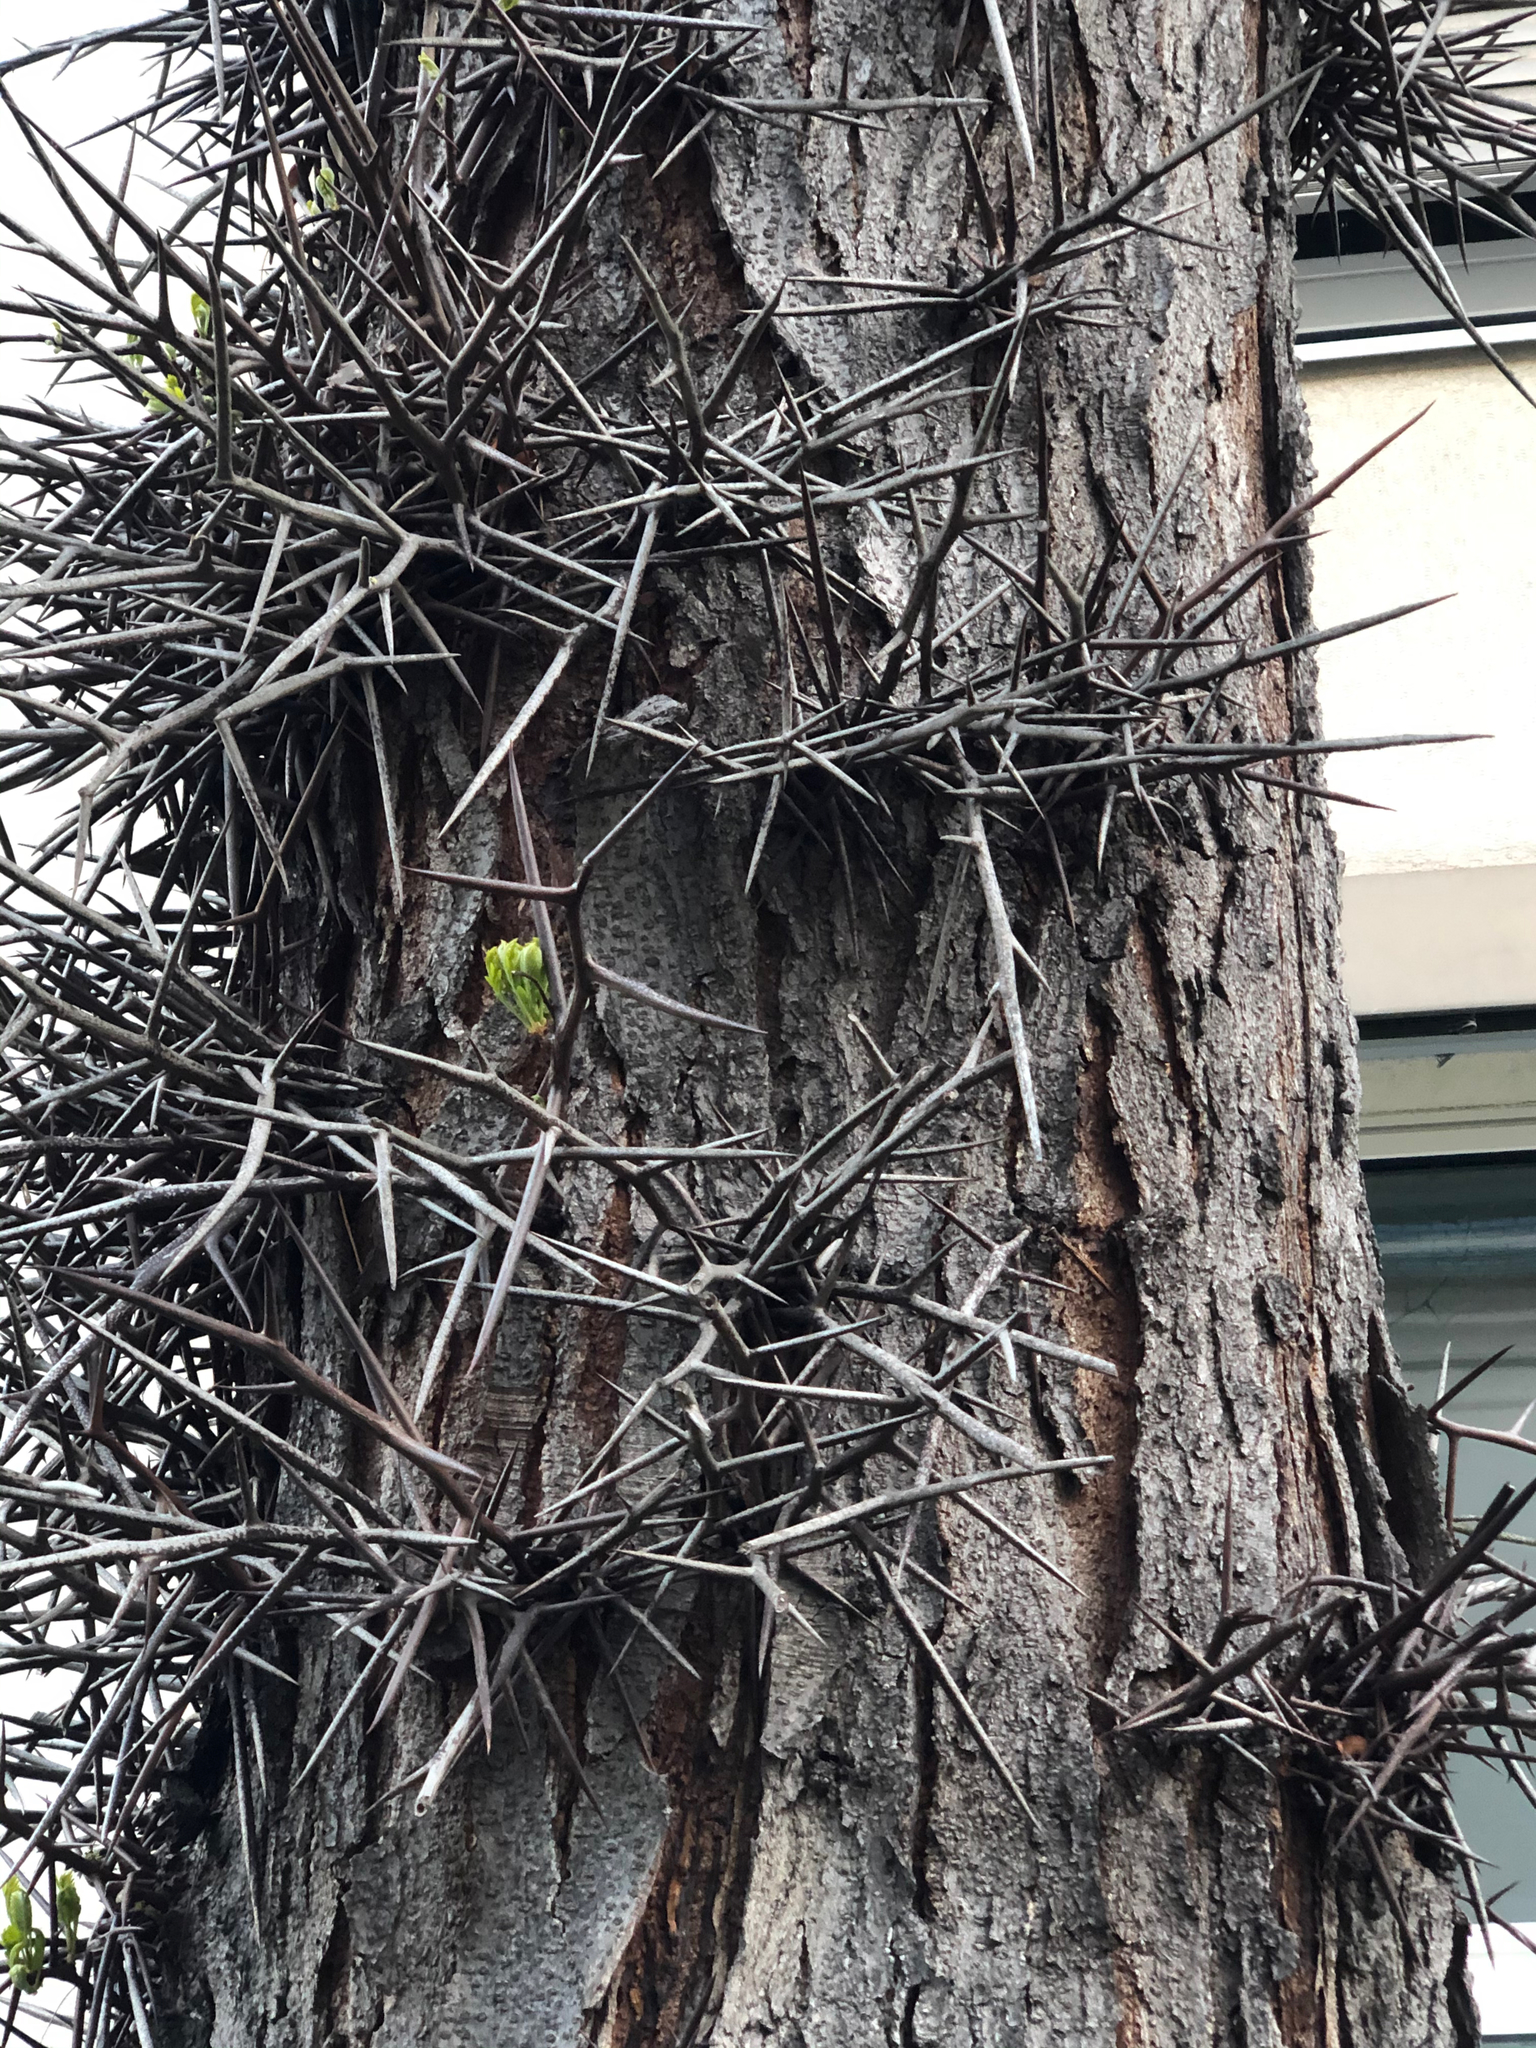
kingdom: Plantae
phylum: Tracheophyta
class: Magnoliopsida
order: Fabales
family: Fabaceae
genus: Gleditsia
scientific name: Gleditsia triacanthos
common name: Common honeylocust
